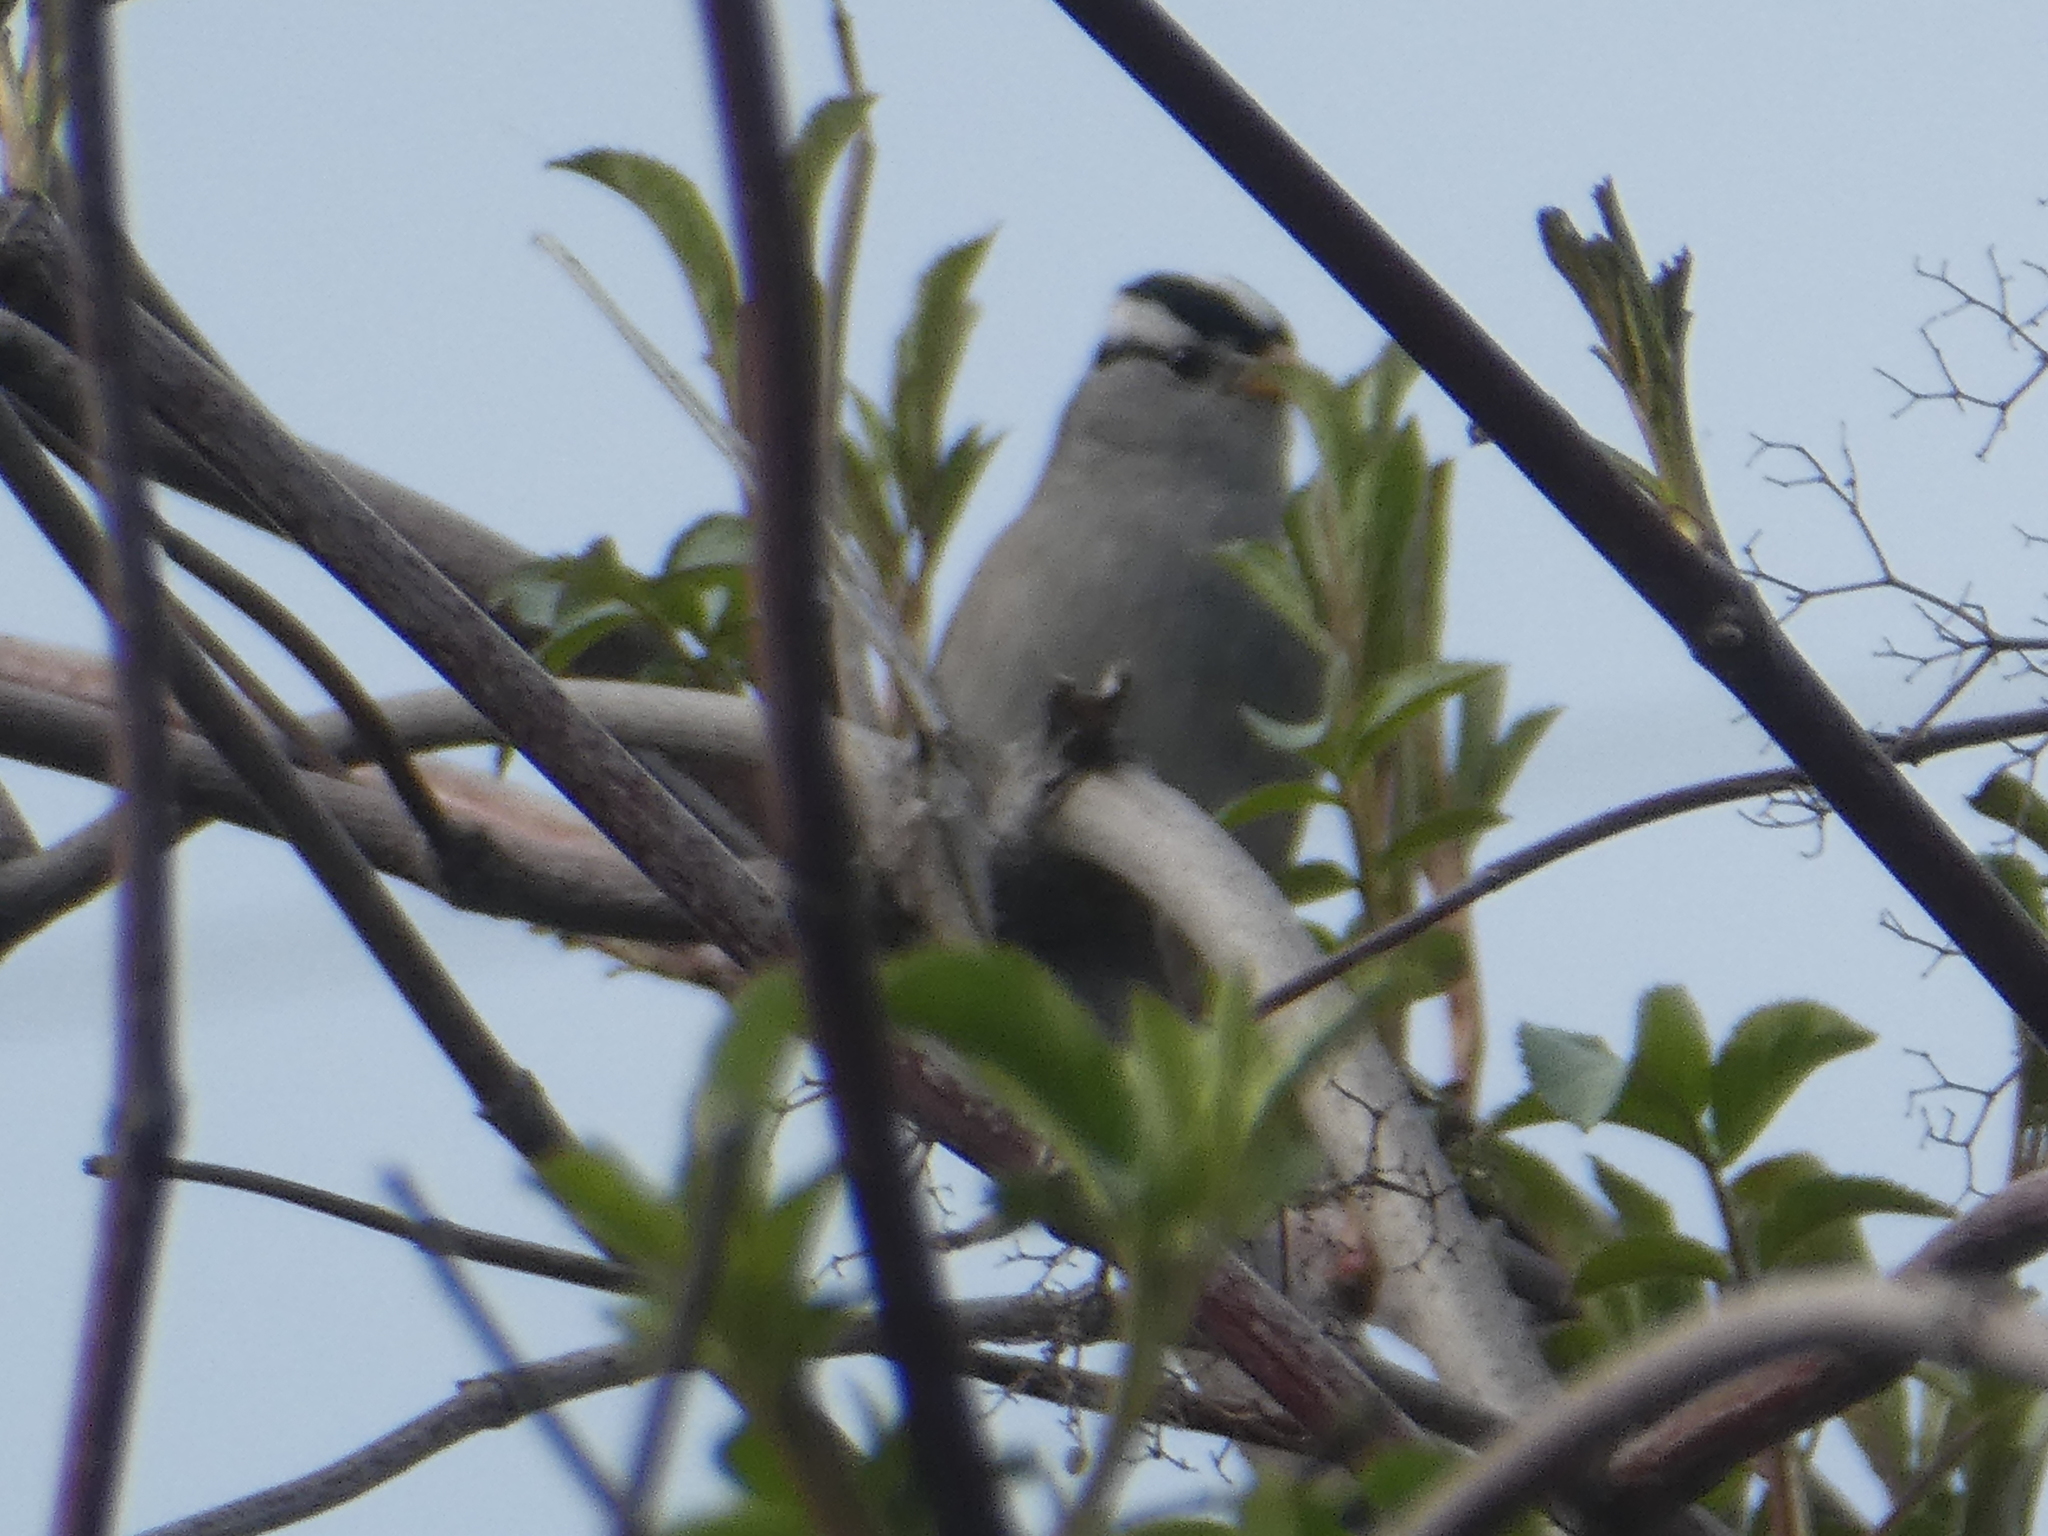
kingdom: Animalia
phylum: Chordata
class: Aves
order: Passeriformes
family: Passerellidae
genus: Zonotrichia
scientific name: Zonotrichia leucophrys
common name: White-crowned sparrow
